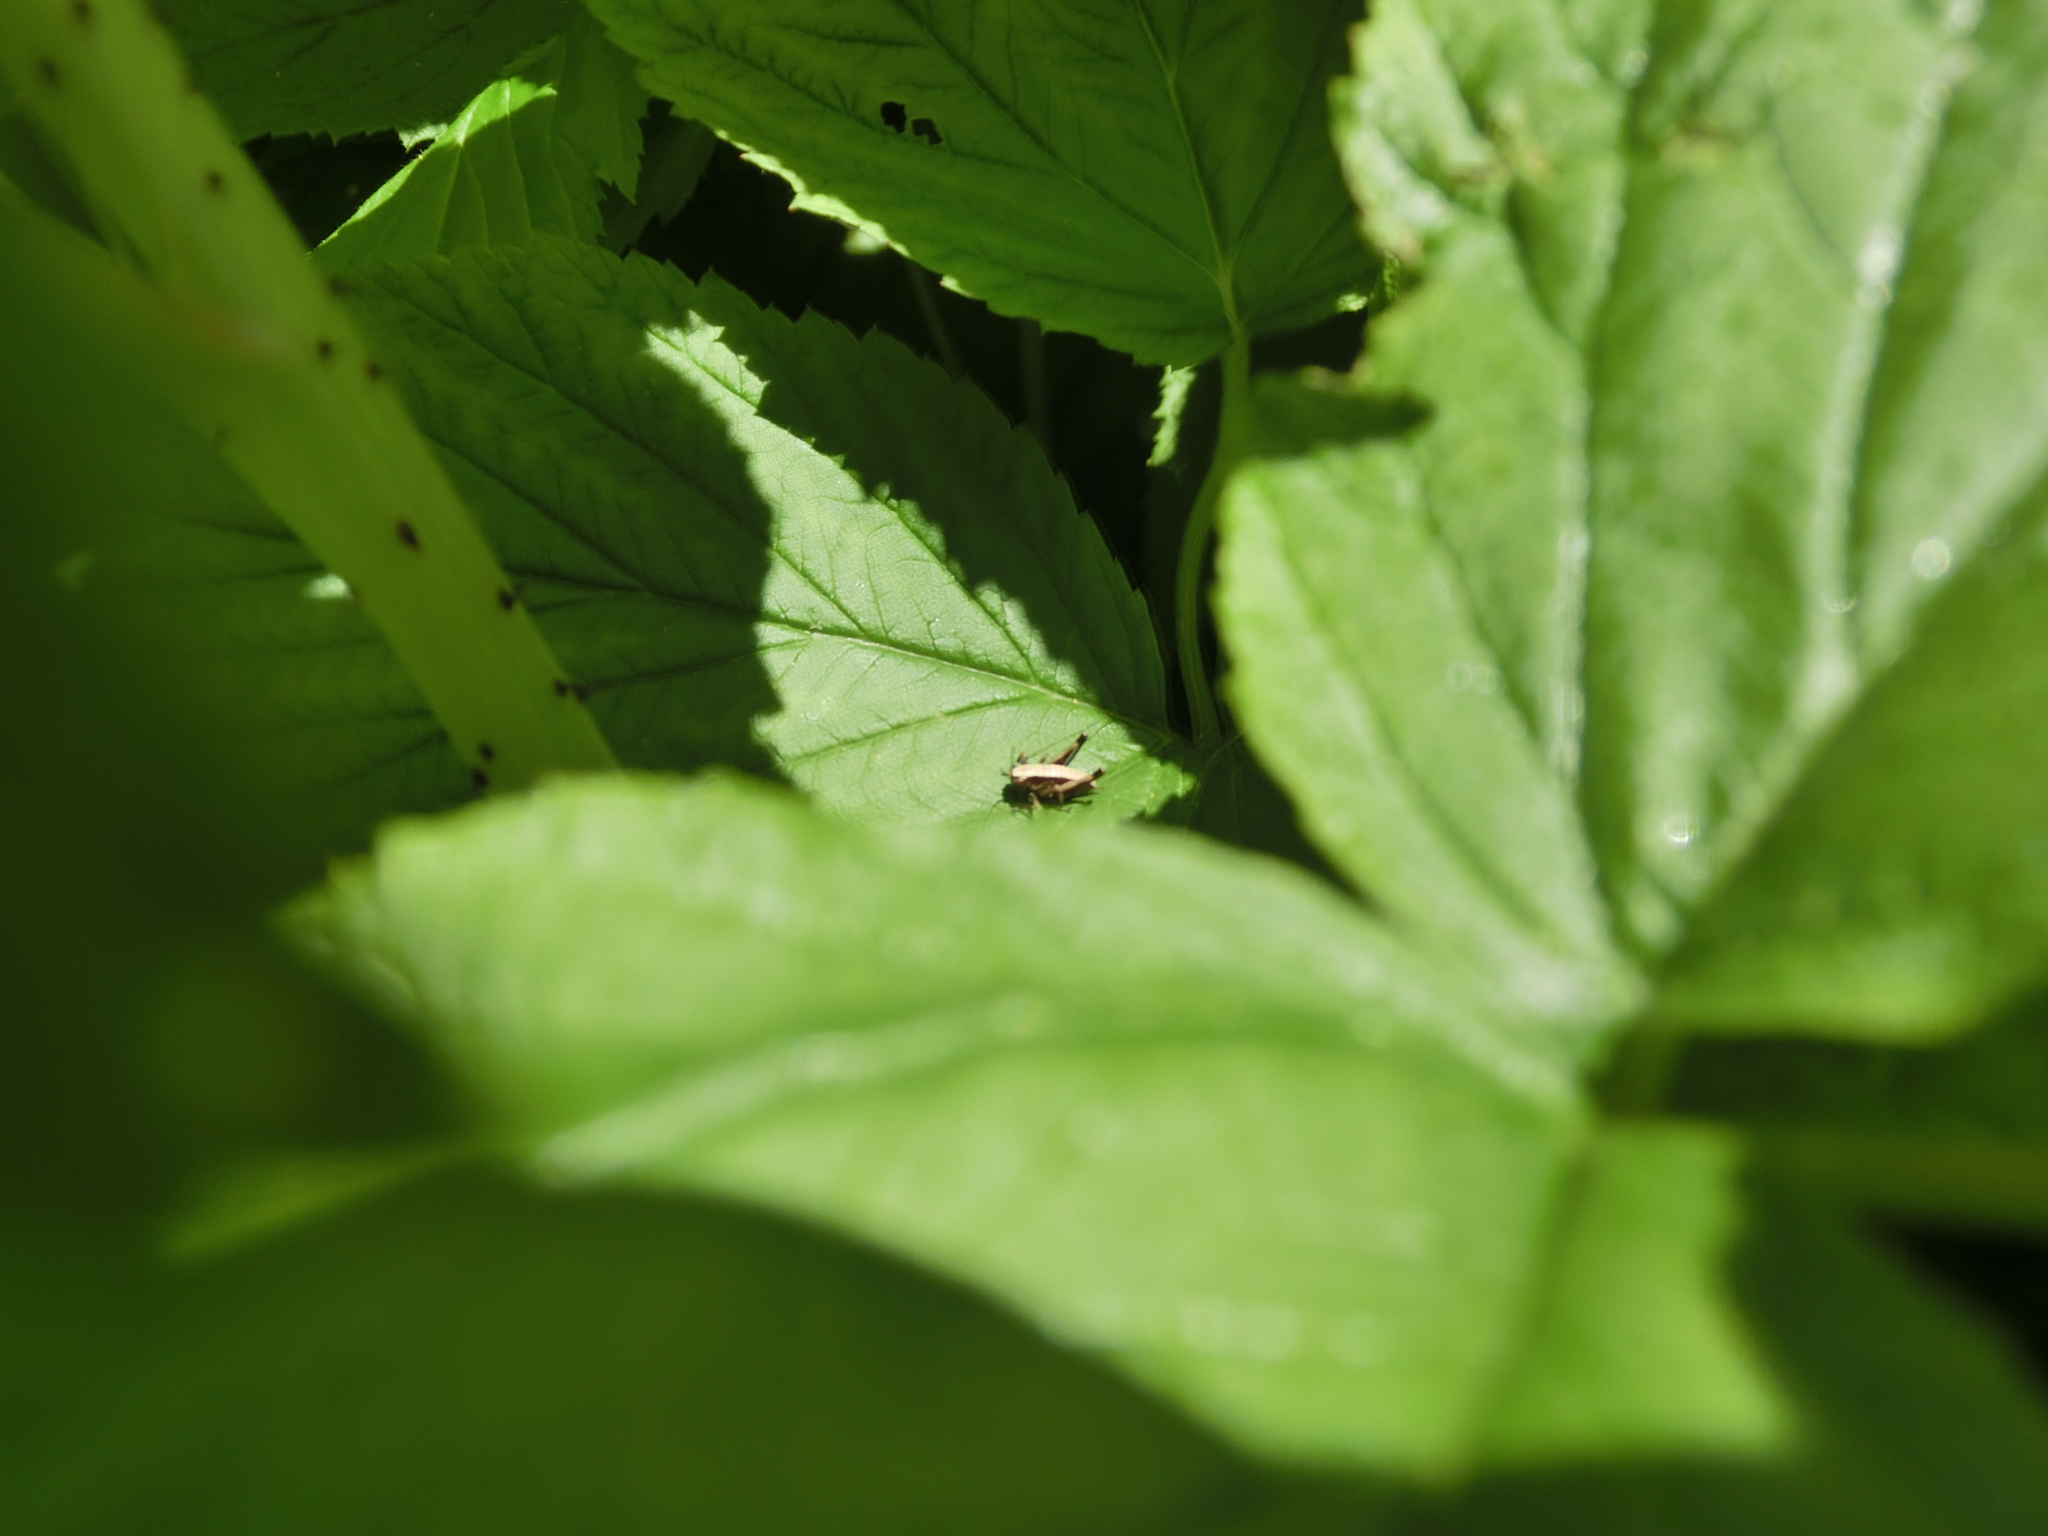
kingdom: Animalia
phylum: Arthropoda
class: Insecta
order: Orthoptera
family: Tettigoniidae
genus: Pholidoptera
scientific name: Pholidoptera griseoaptera
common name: Dark bush-cricket
